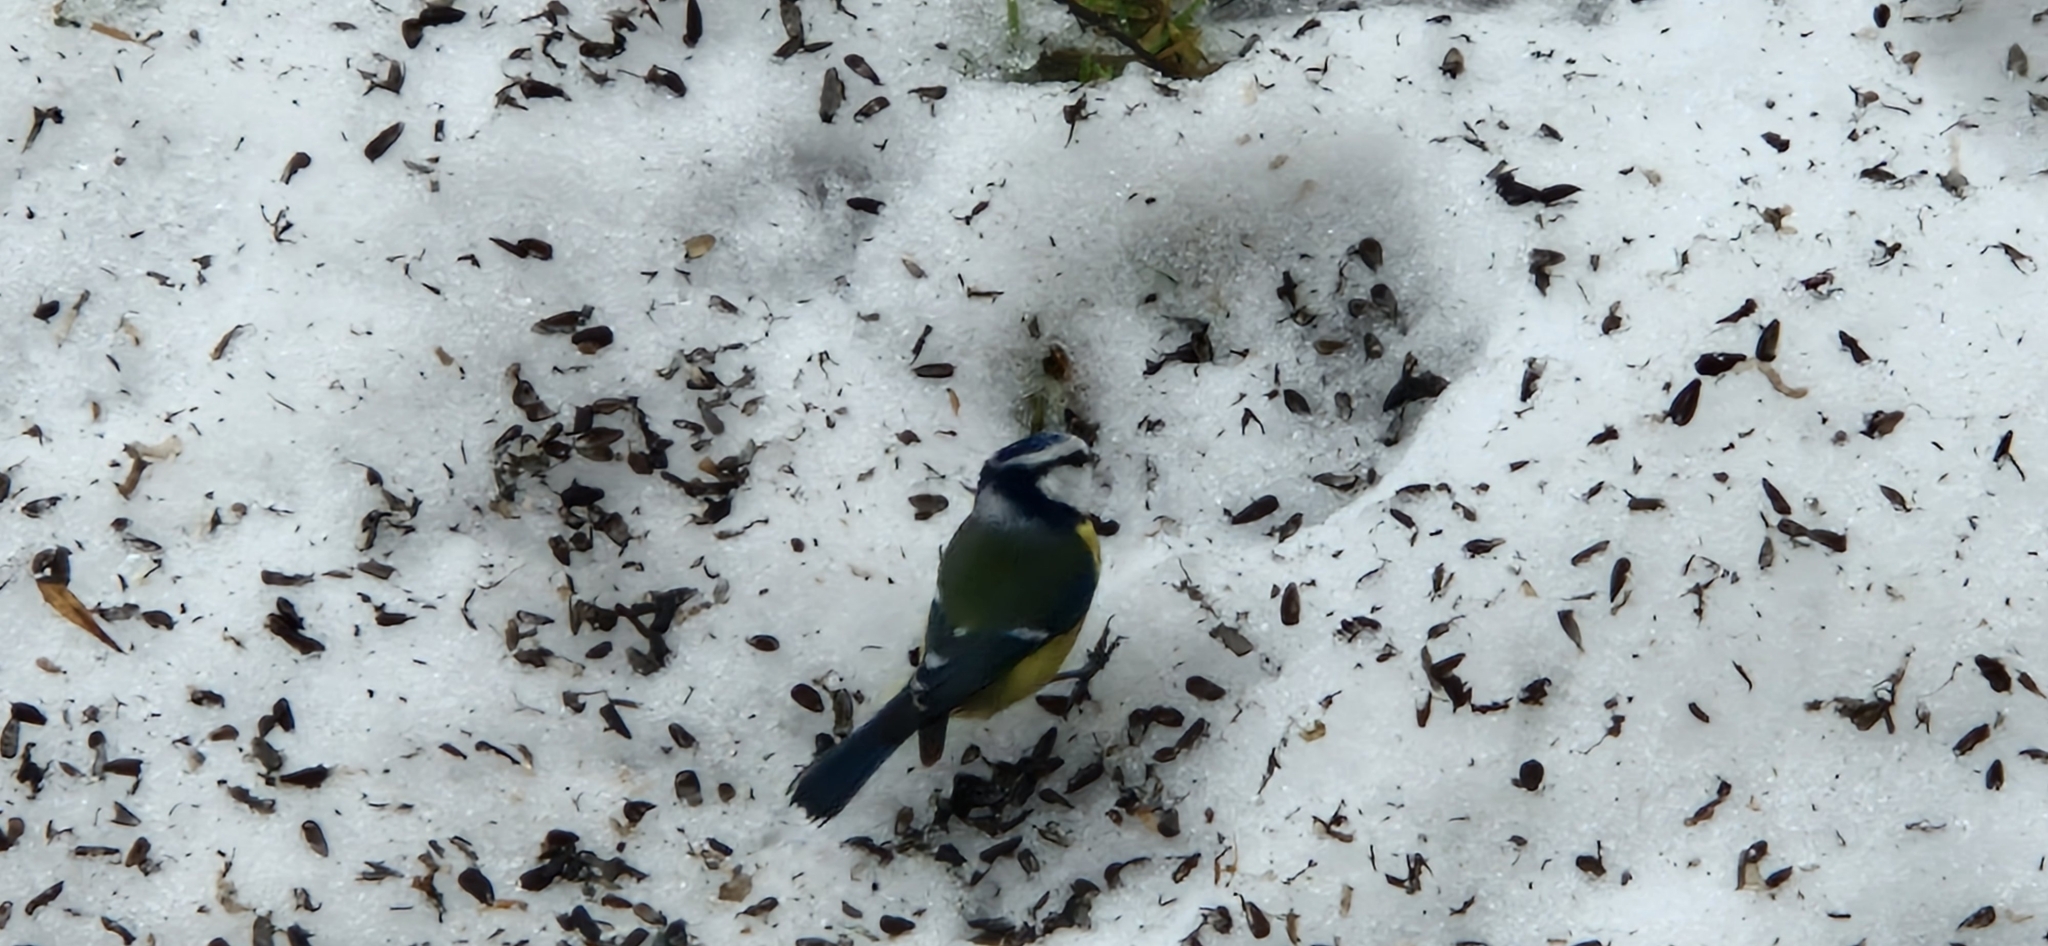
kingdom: Animalia
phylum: Chordata
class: Aves
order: Passeriformes
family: Paridae
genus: Cyanistes
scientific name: Cyanistes caeruleus
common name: Eurasian blue tit
